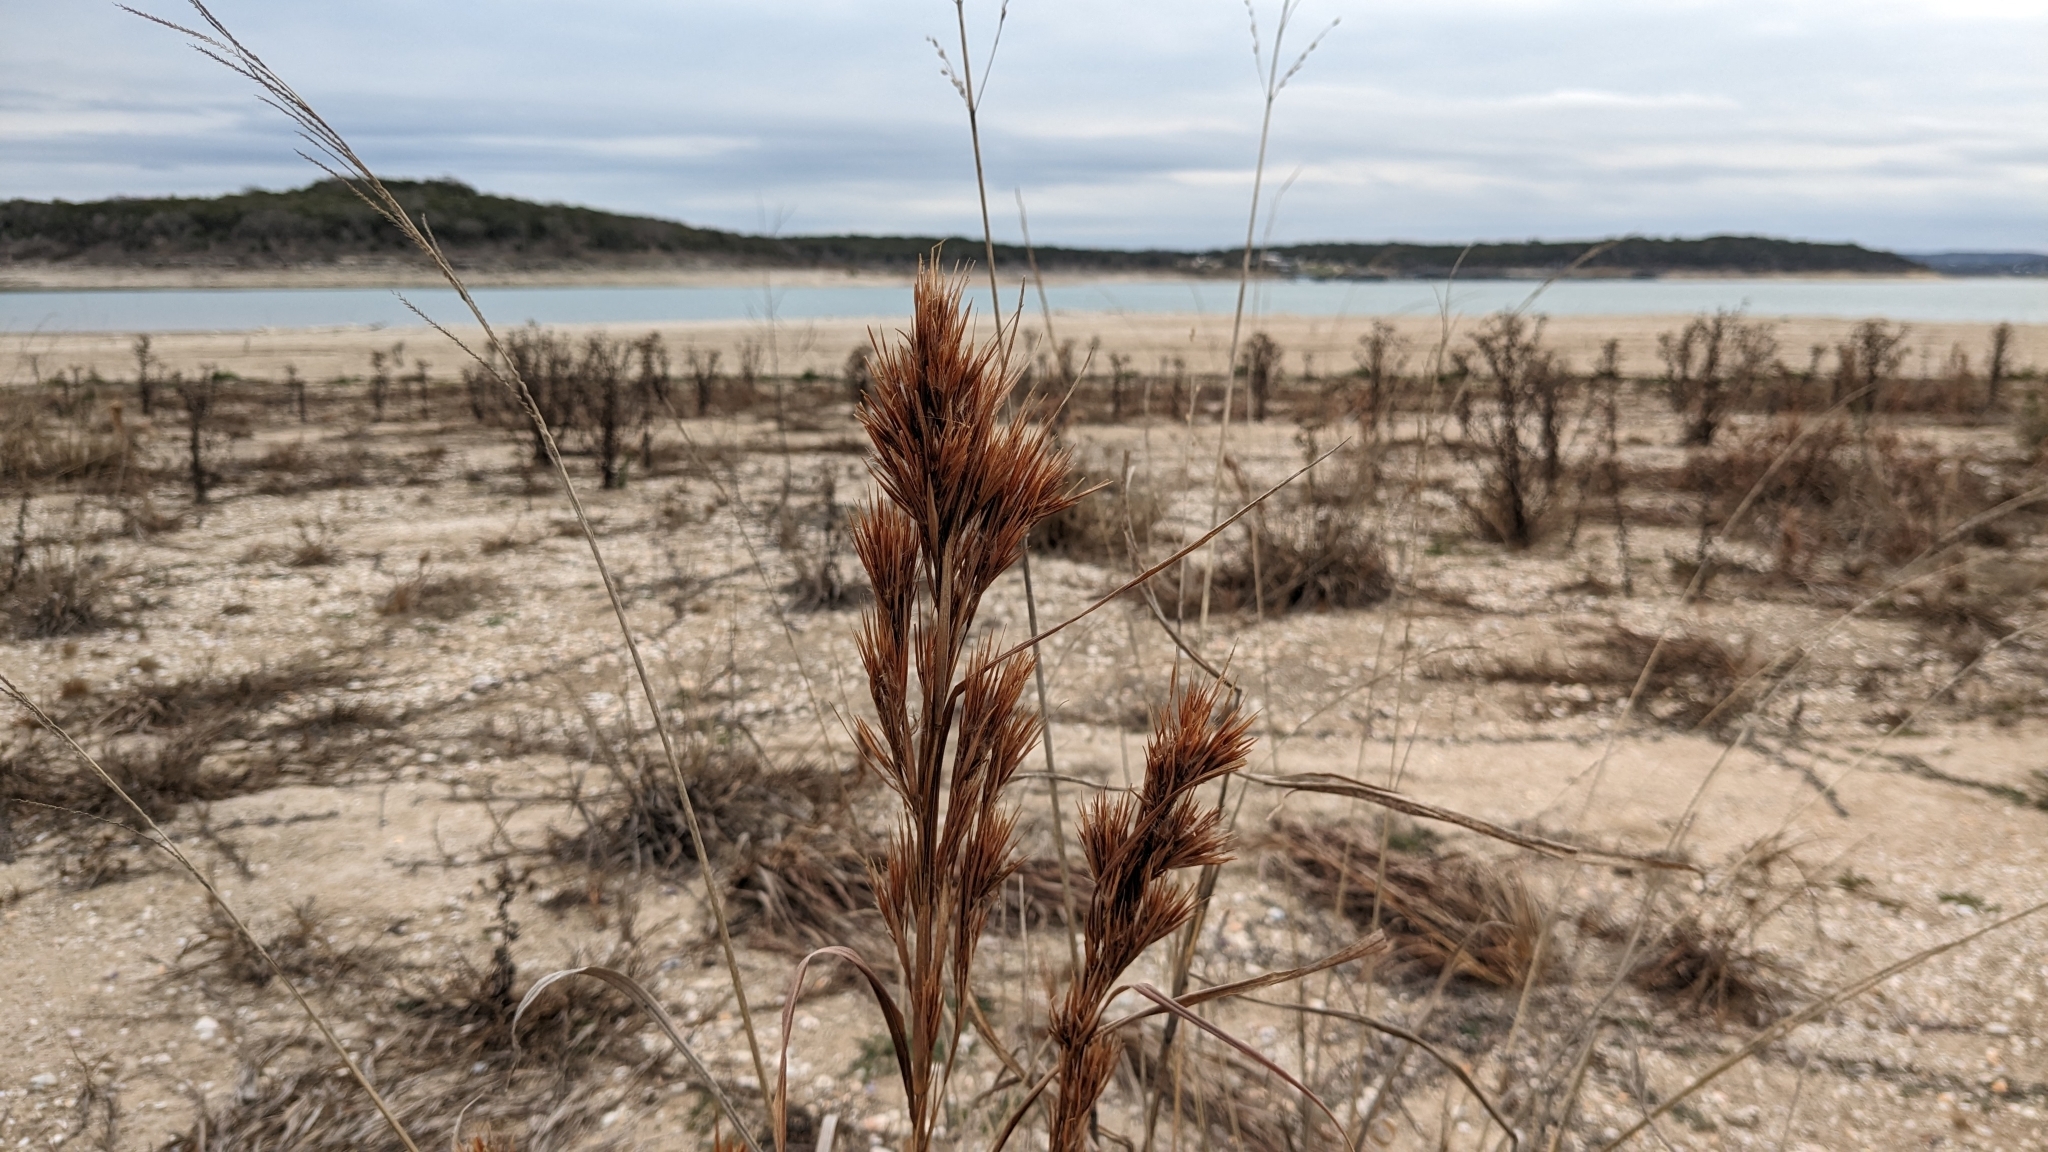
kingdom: Plantae
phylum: Tracheophyta
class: Liliopsida
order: Poales
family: Poaceae
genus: Andropogon
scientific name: Andropogon tenuispatheus
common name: Bushy bluestem
